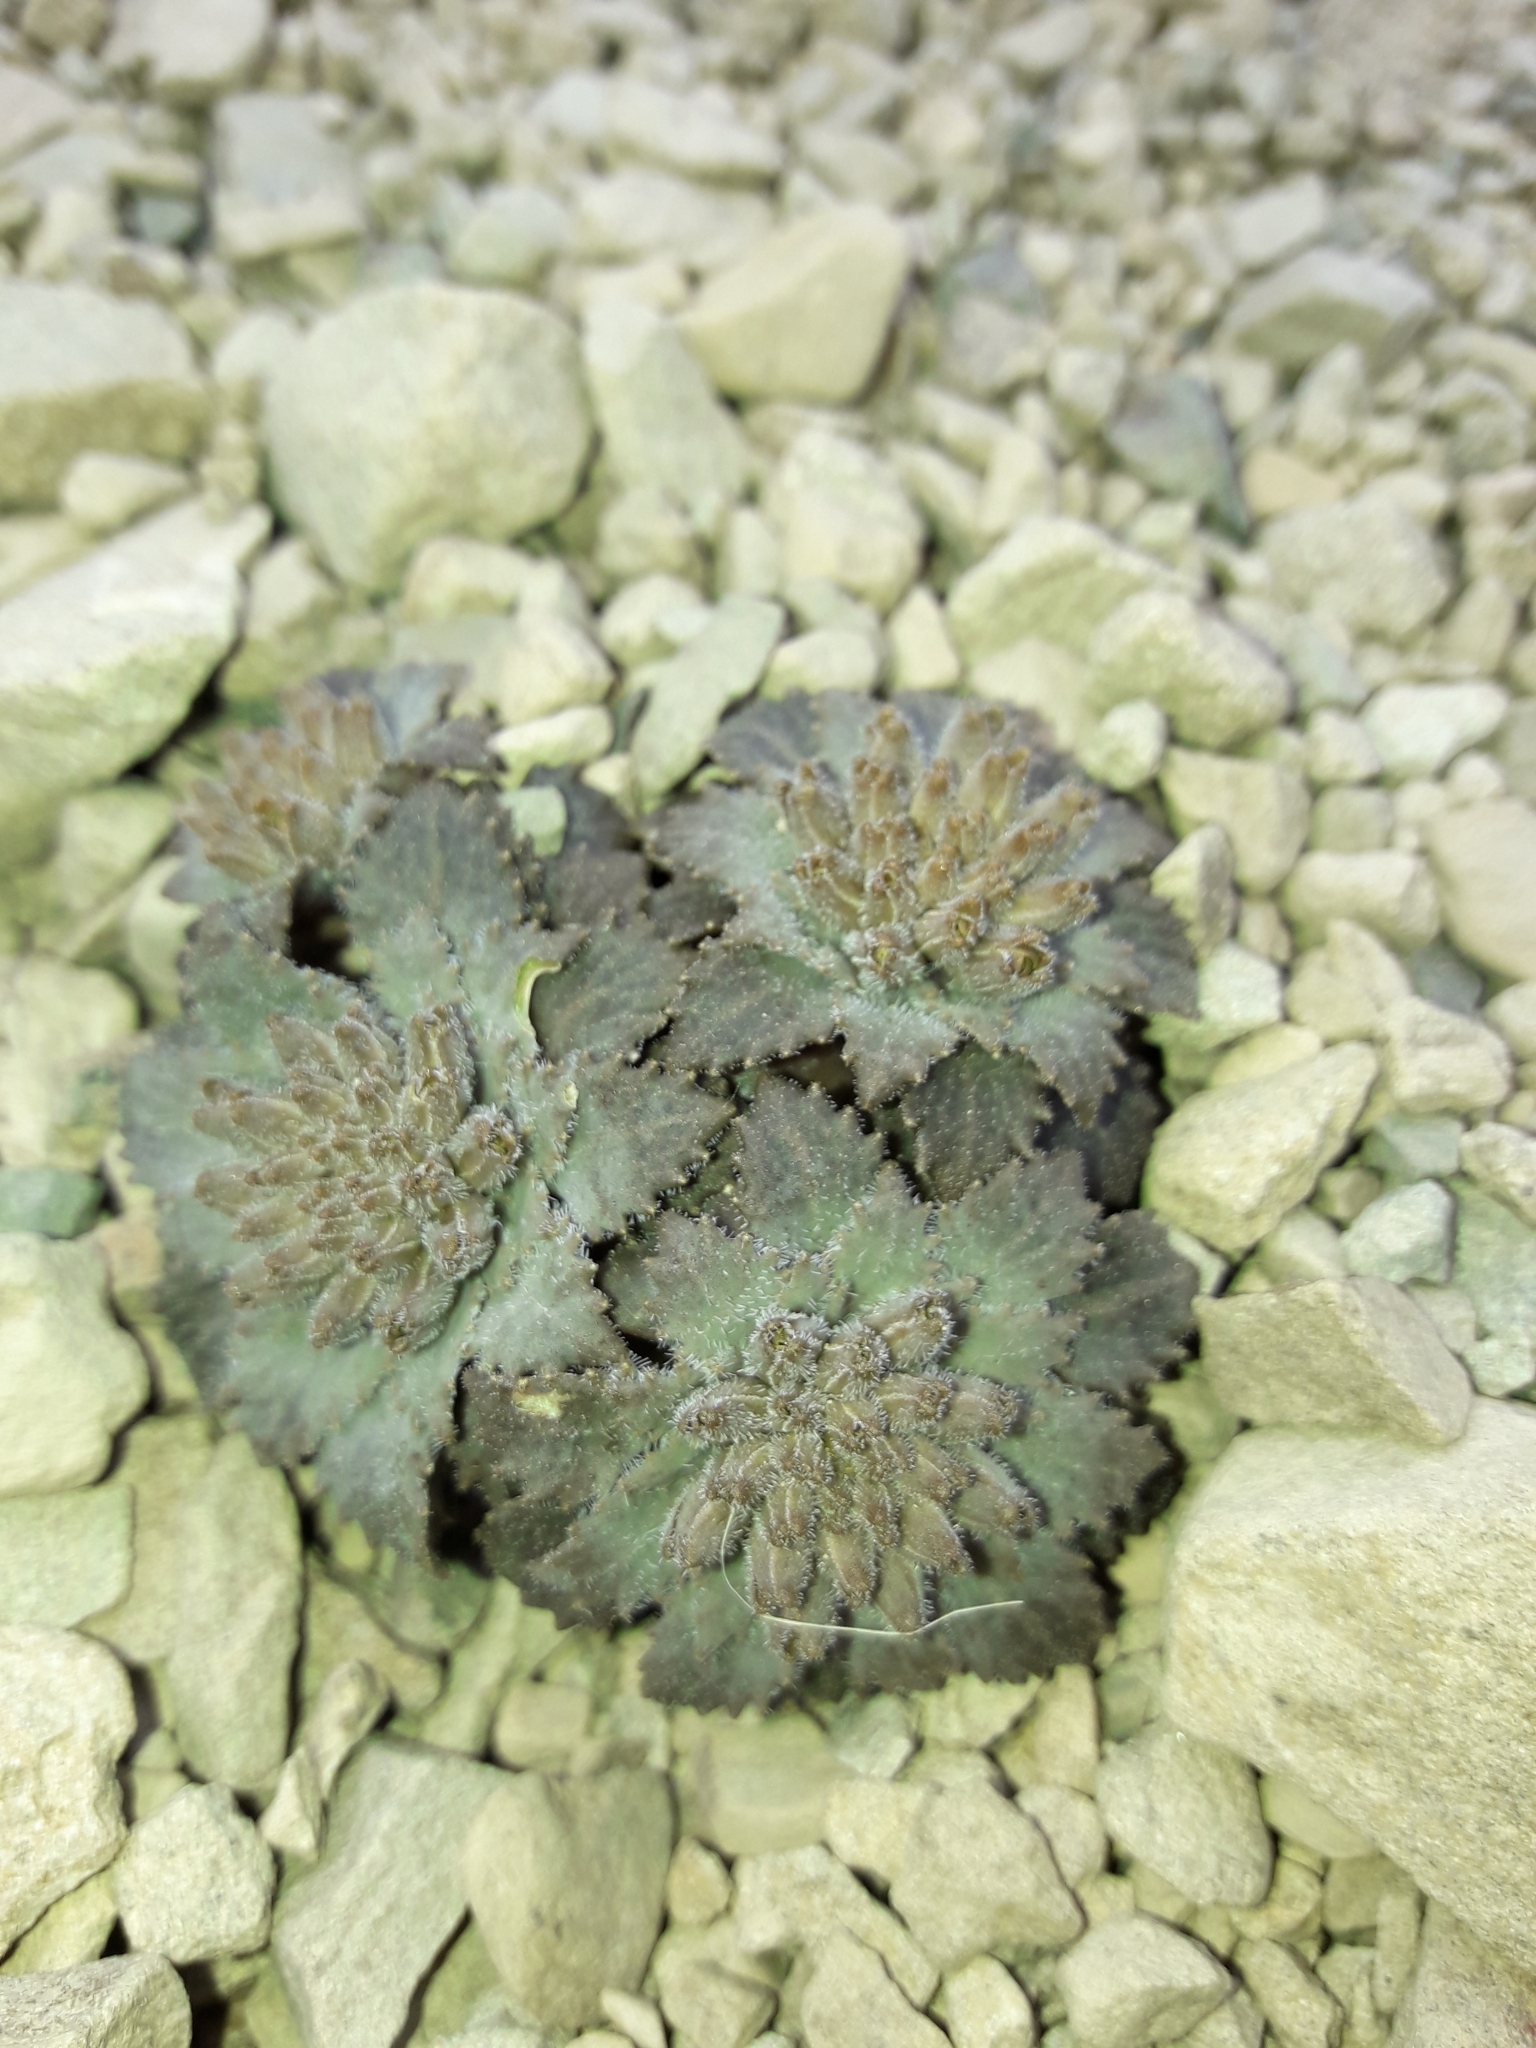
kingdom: Plantae
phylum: Tracheophyta
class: Magnoliopsida
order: Brassicales
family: Brassicaceae
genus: Notothlaspi
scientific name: Notothlaspi rosulatum
